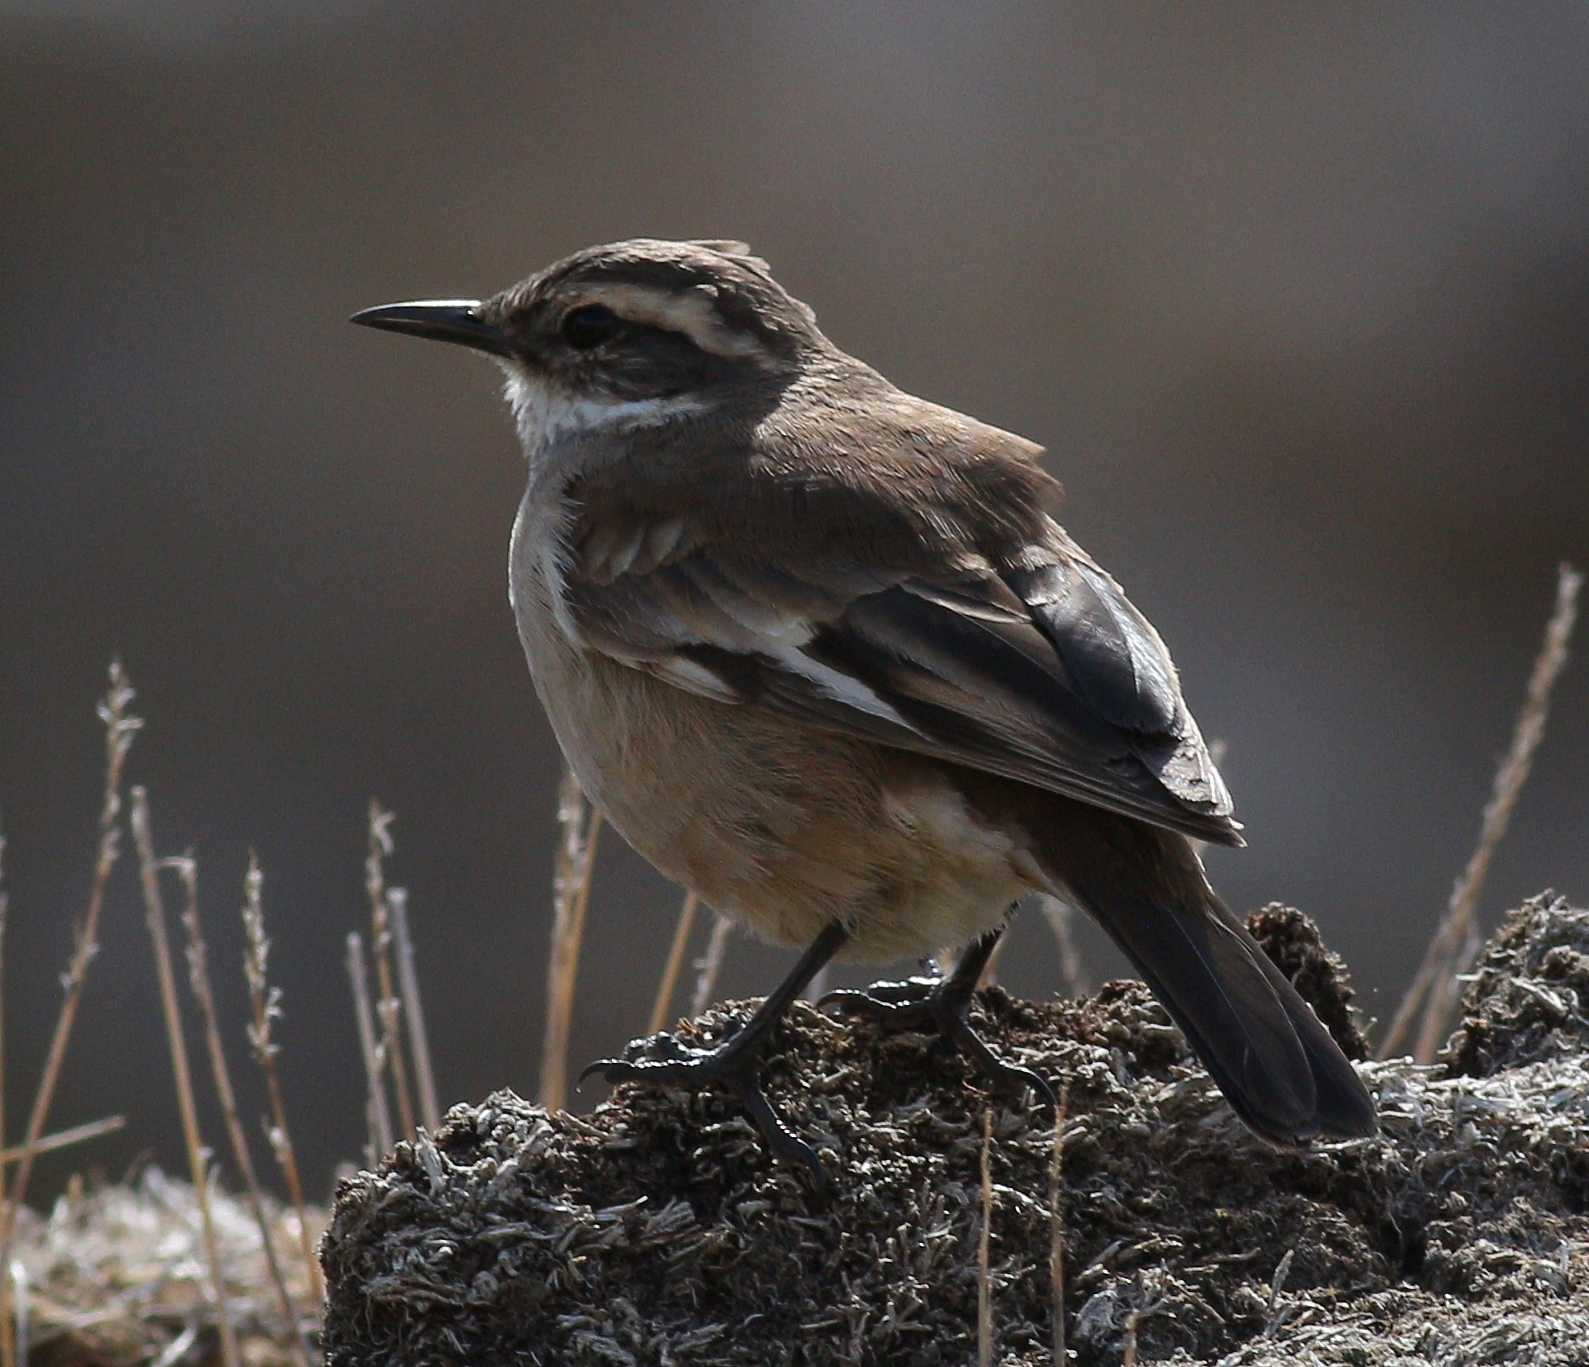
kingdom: Animalia
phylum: Chordata
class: Aves
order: Passeriformes
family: Furnariidae
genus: Cinclodes
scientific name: Cinclodes fuscus
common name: Buff-winged cinclodes
